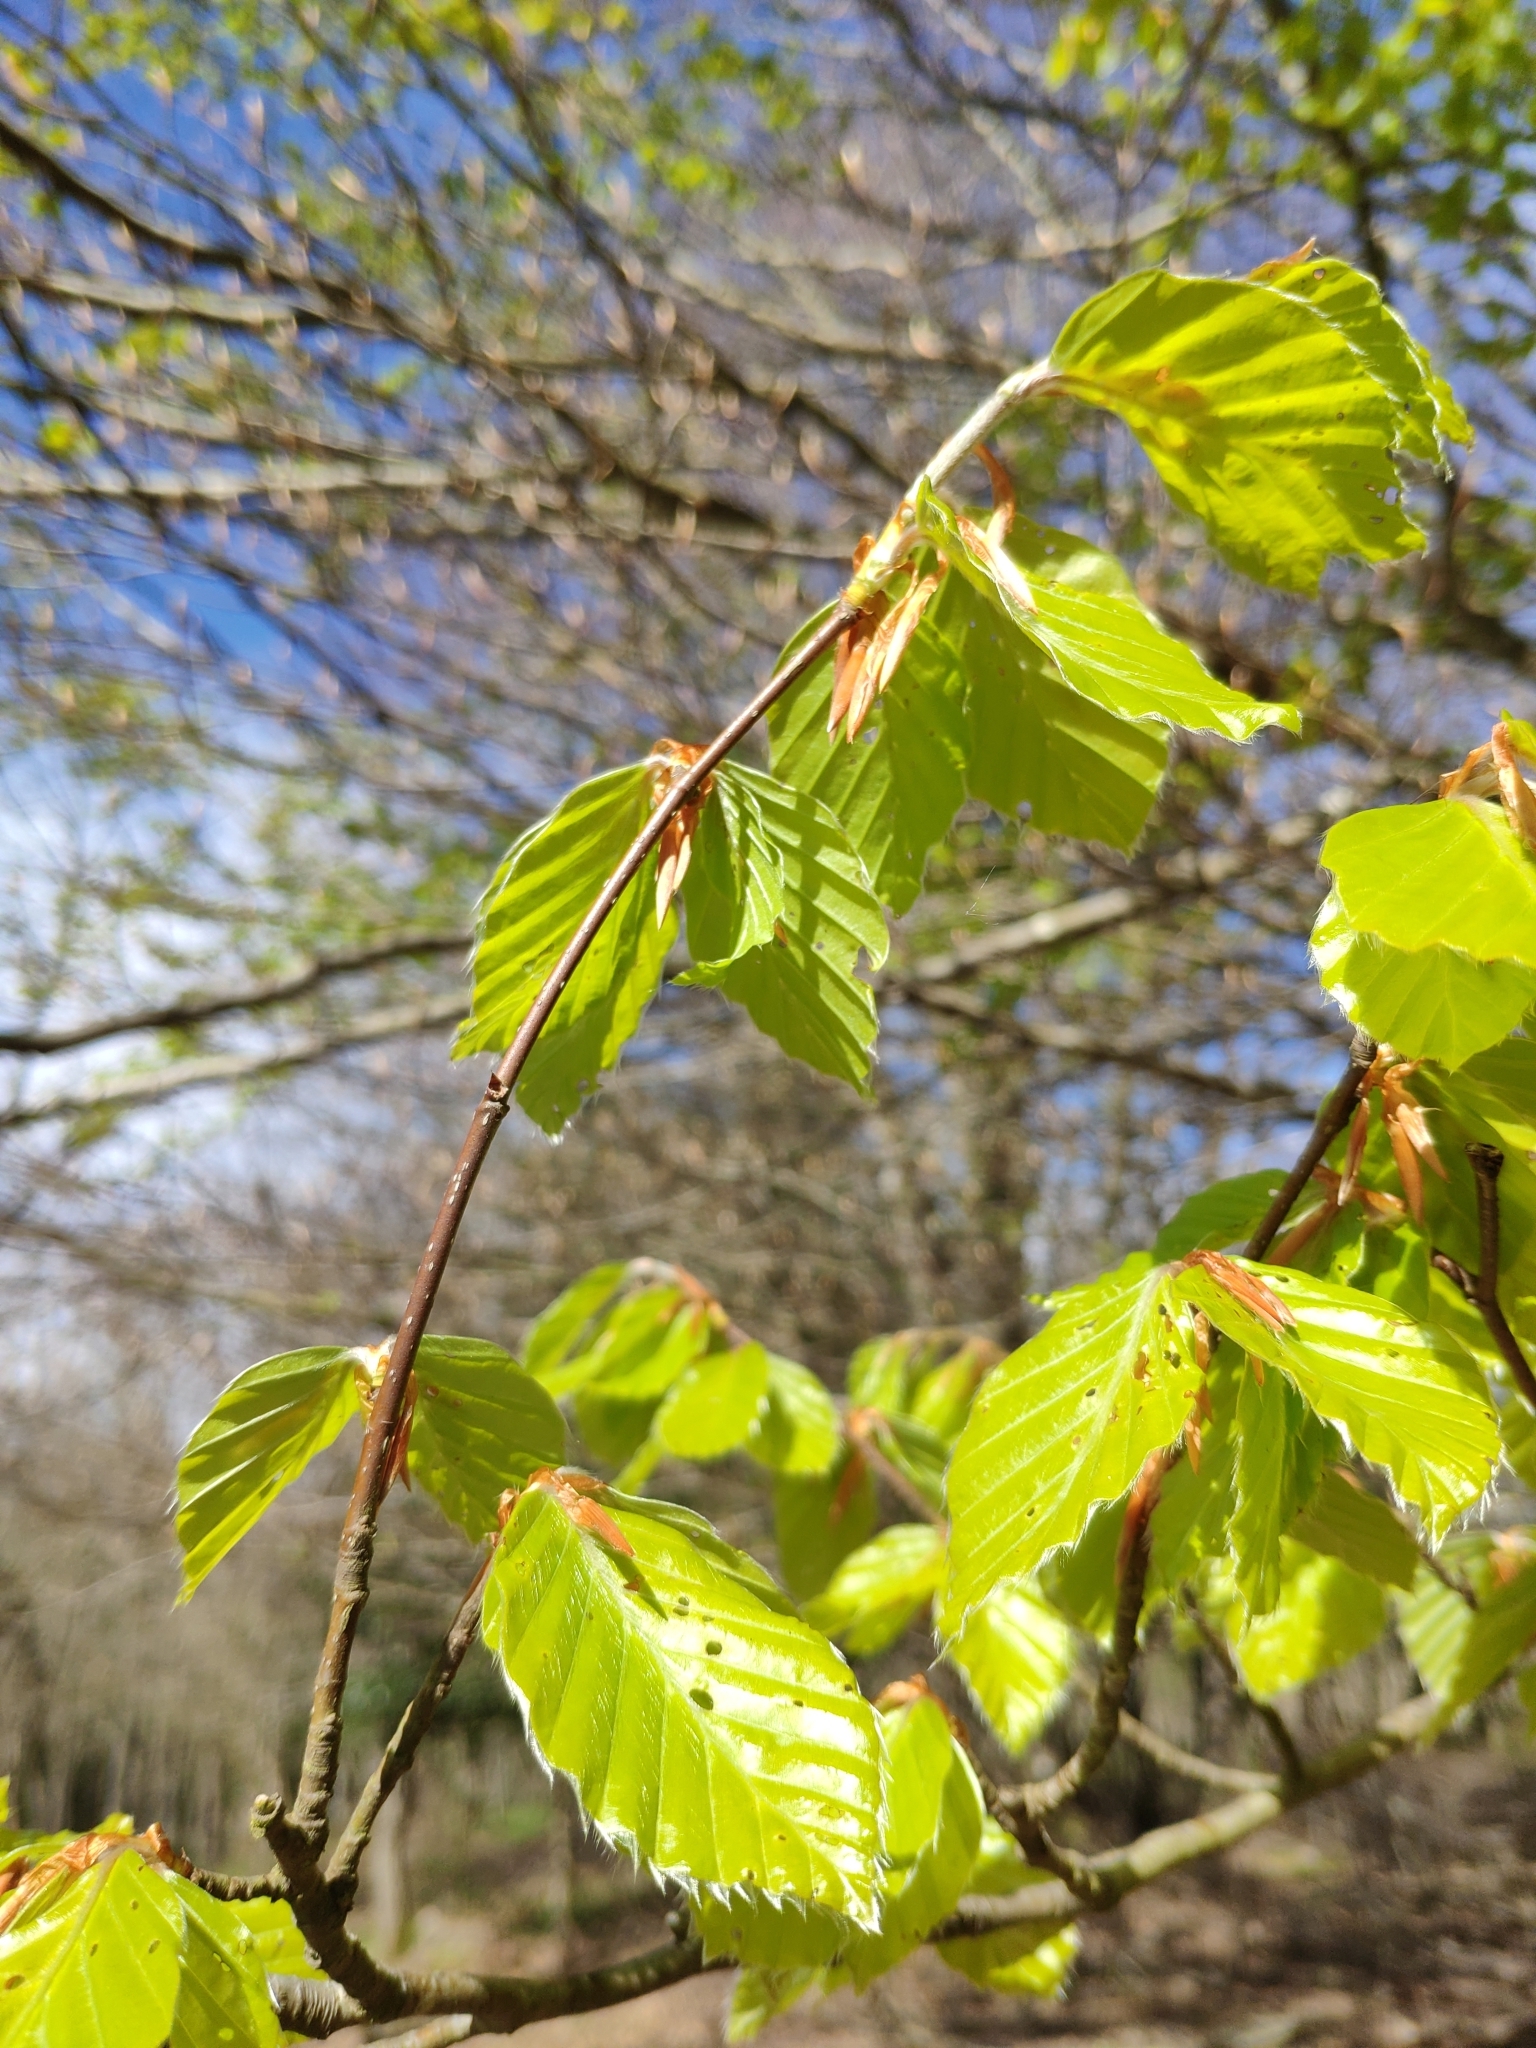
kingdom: Plantae
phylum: Tracheophyta
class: Magnoliopsida
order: Fagales
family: Fagaceae
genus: Fagus
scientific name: Fagus sylvatica
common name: Beech
